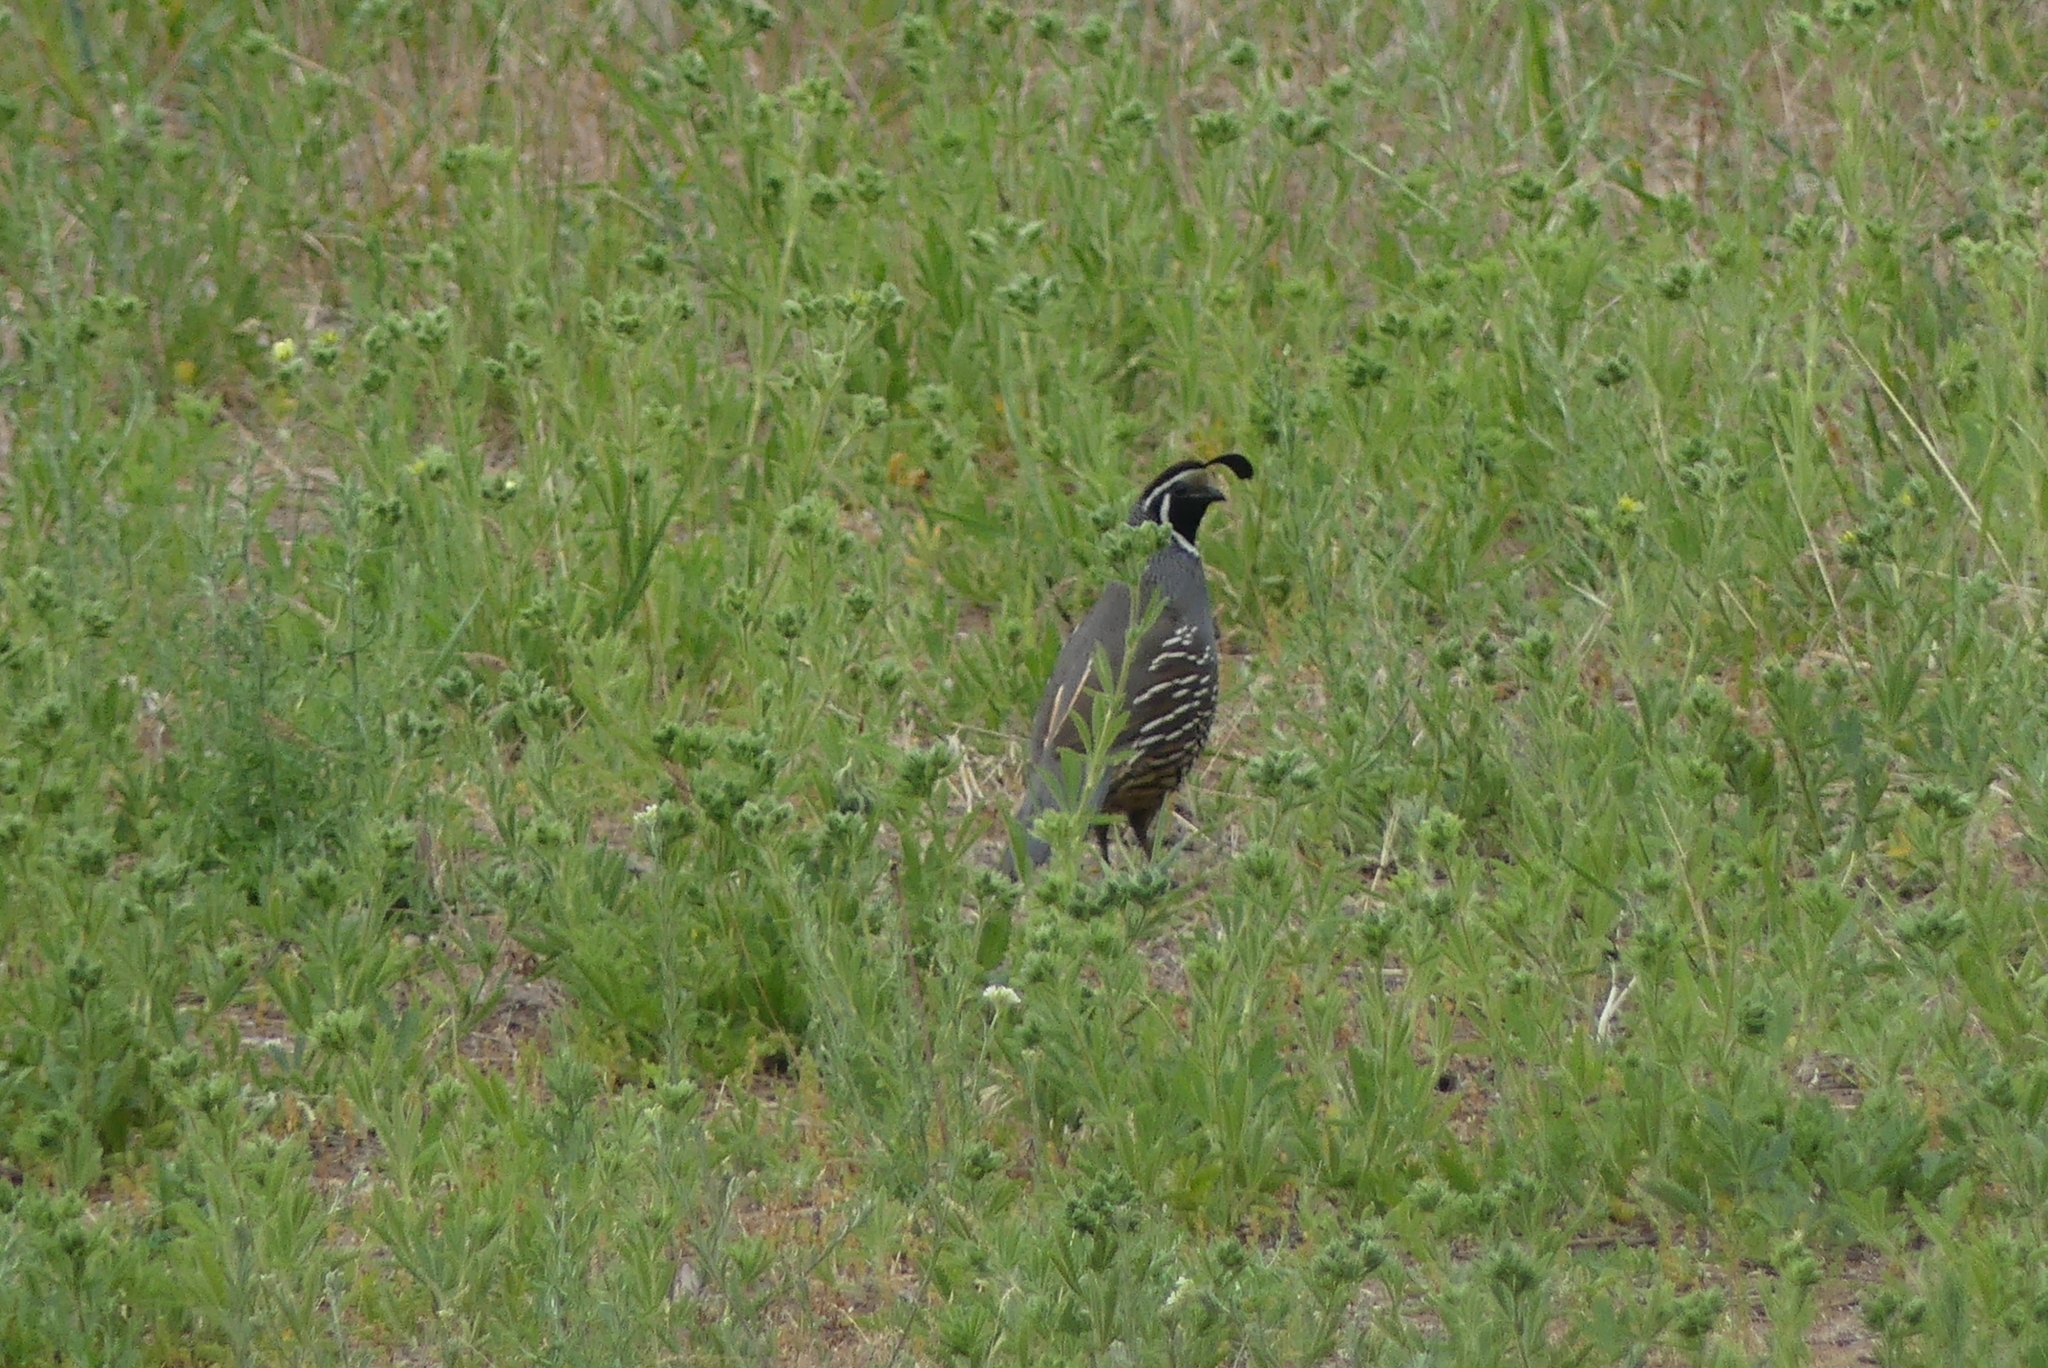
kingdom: Animalia
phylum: Chordata
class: Aves
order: Galliformes
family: Odontophoridae
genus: Callipepla
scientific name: Callipepla californica
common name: California quail
